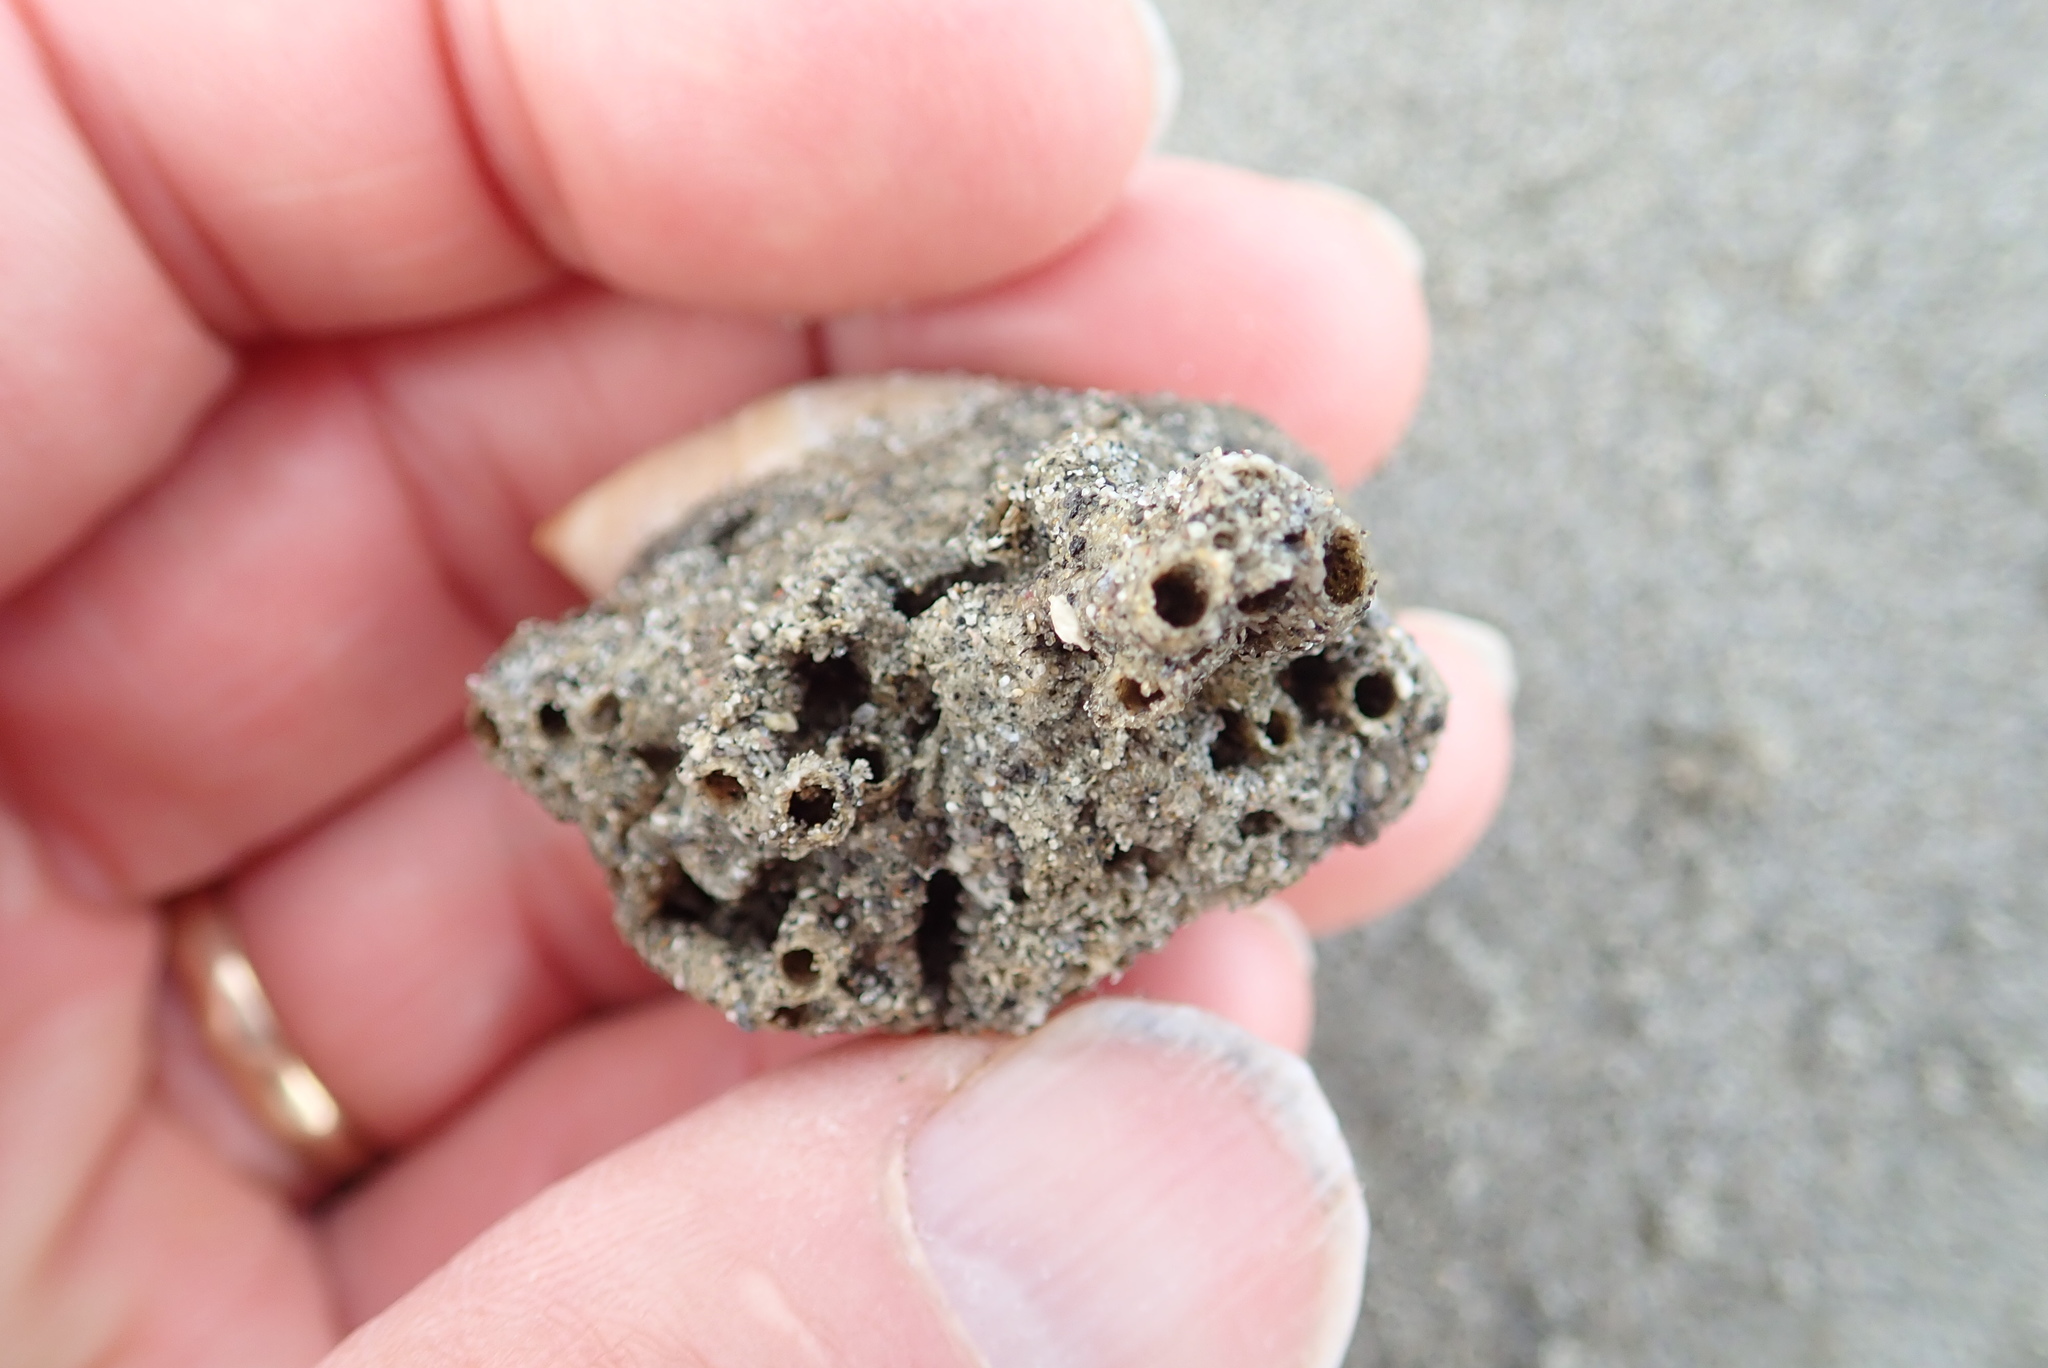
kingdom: Animalia
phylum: Annelida
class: Polychaeta
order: Sabellida
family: Sabellariidae
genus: Neosabellaria
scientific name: Neosabellaria kaiparaensis
